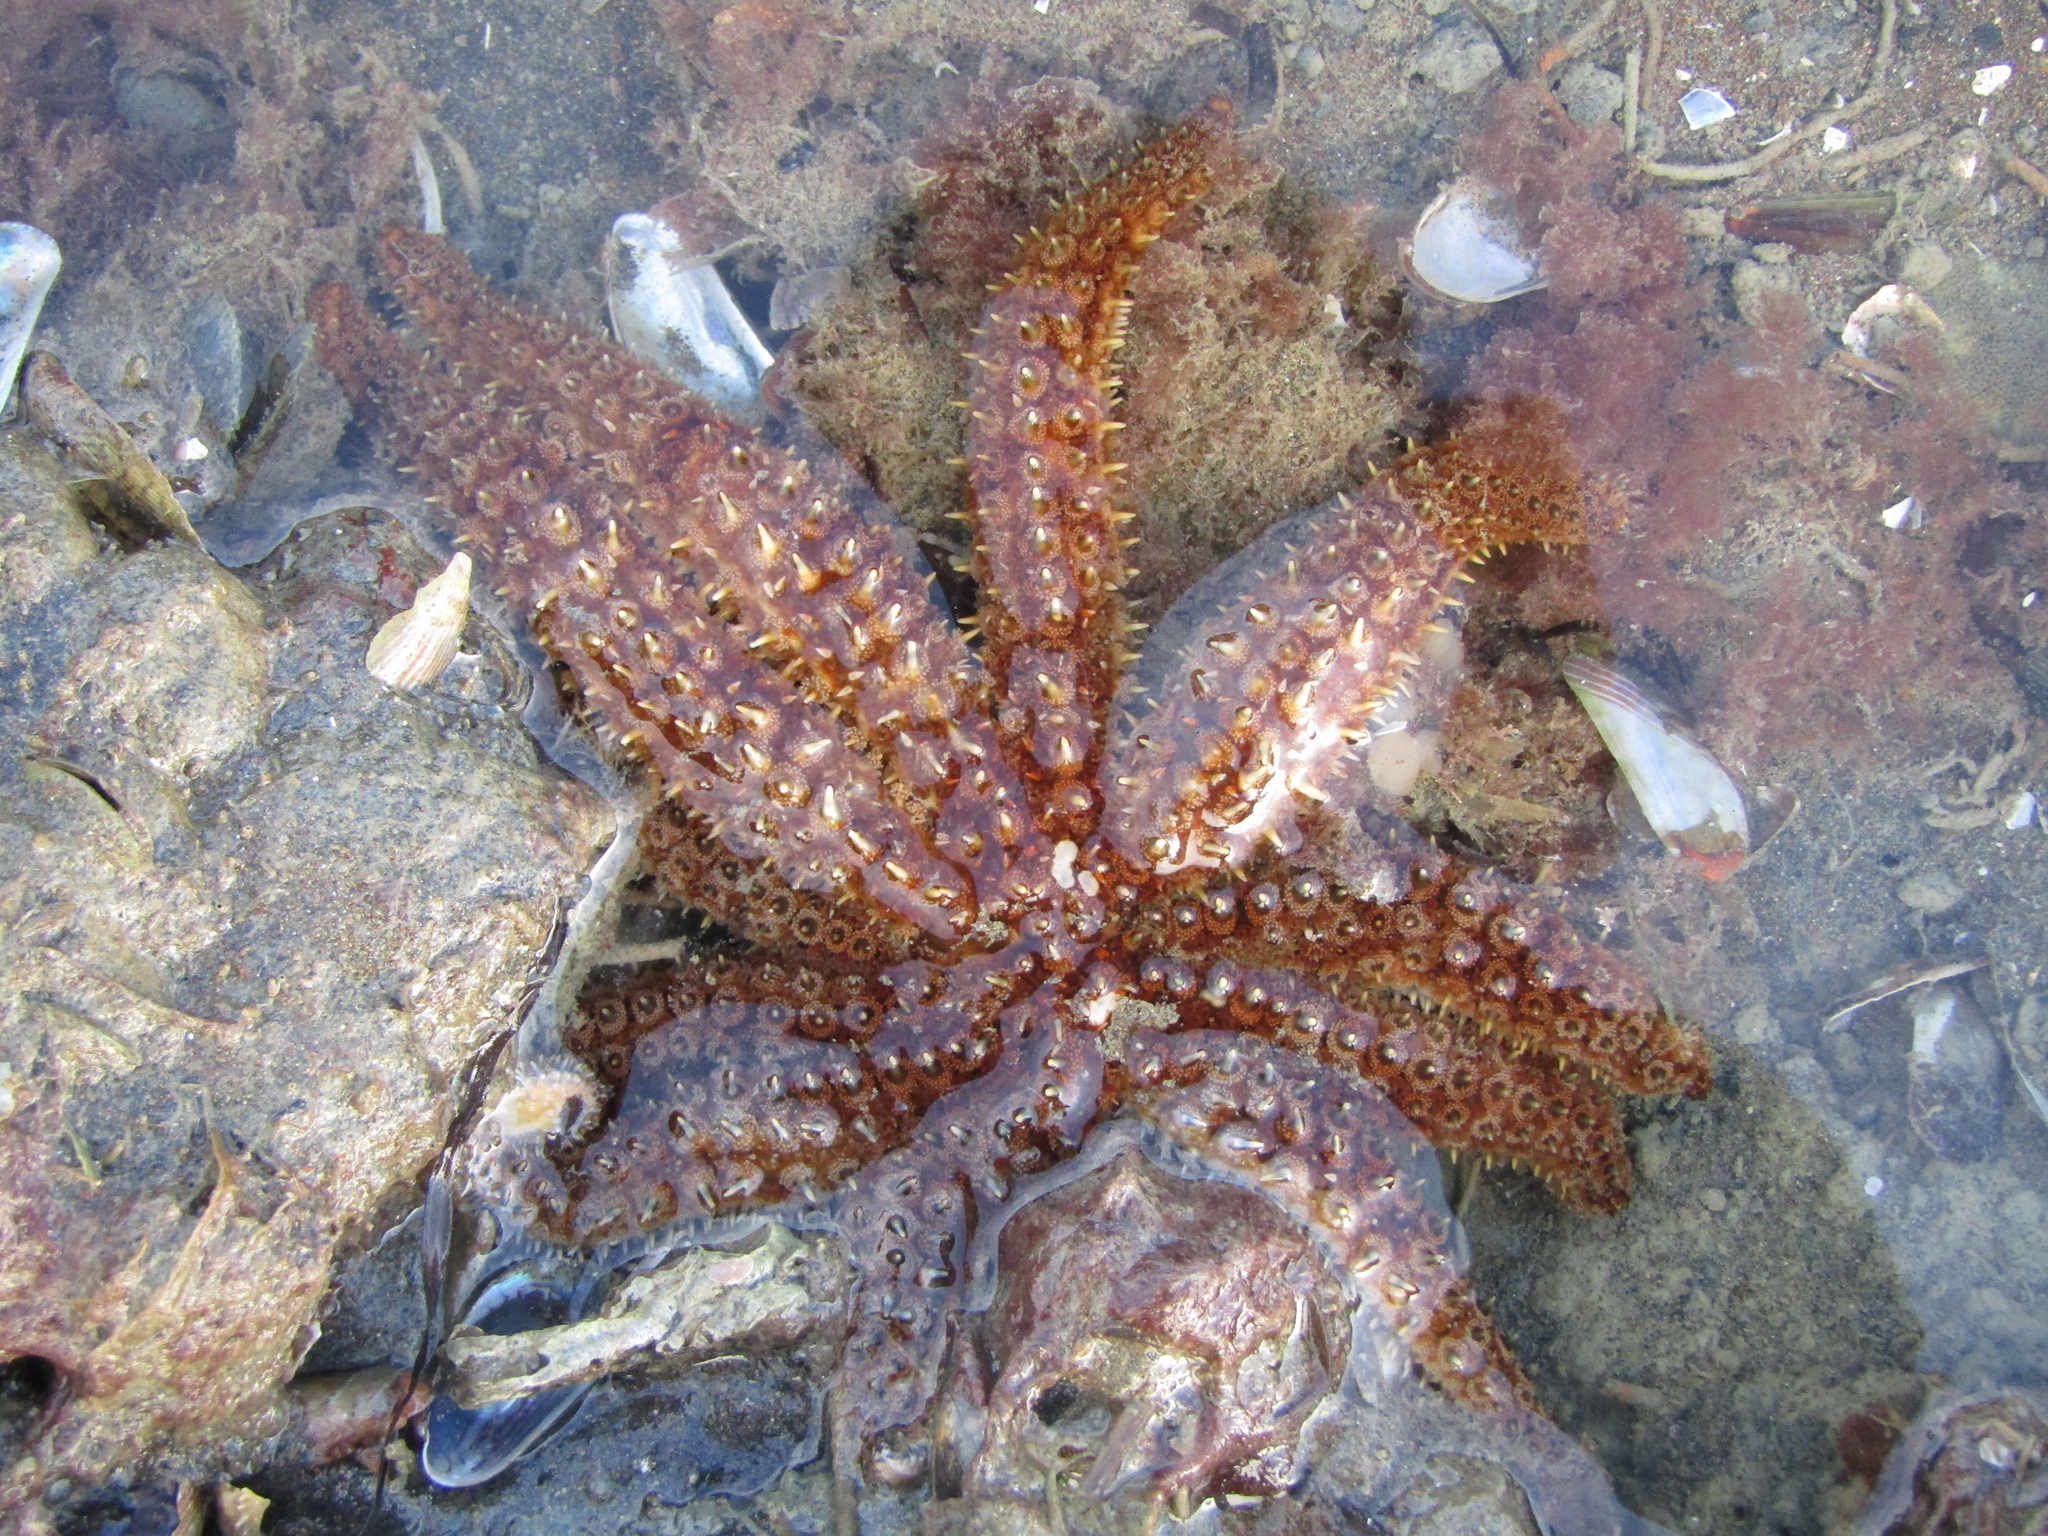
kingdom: Animalia
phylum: Echinodermata
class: Asteroidea
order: Forcipulatida
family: Asteriidae
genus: Coscinasterias
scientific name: Coscinasterias muricata
